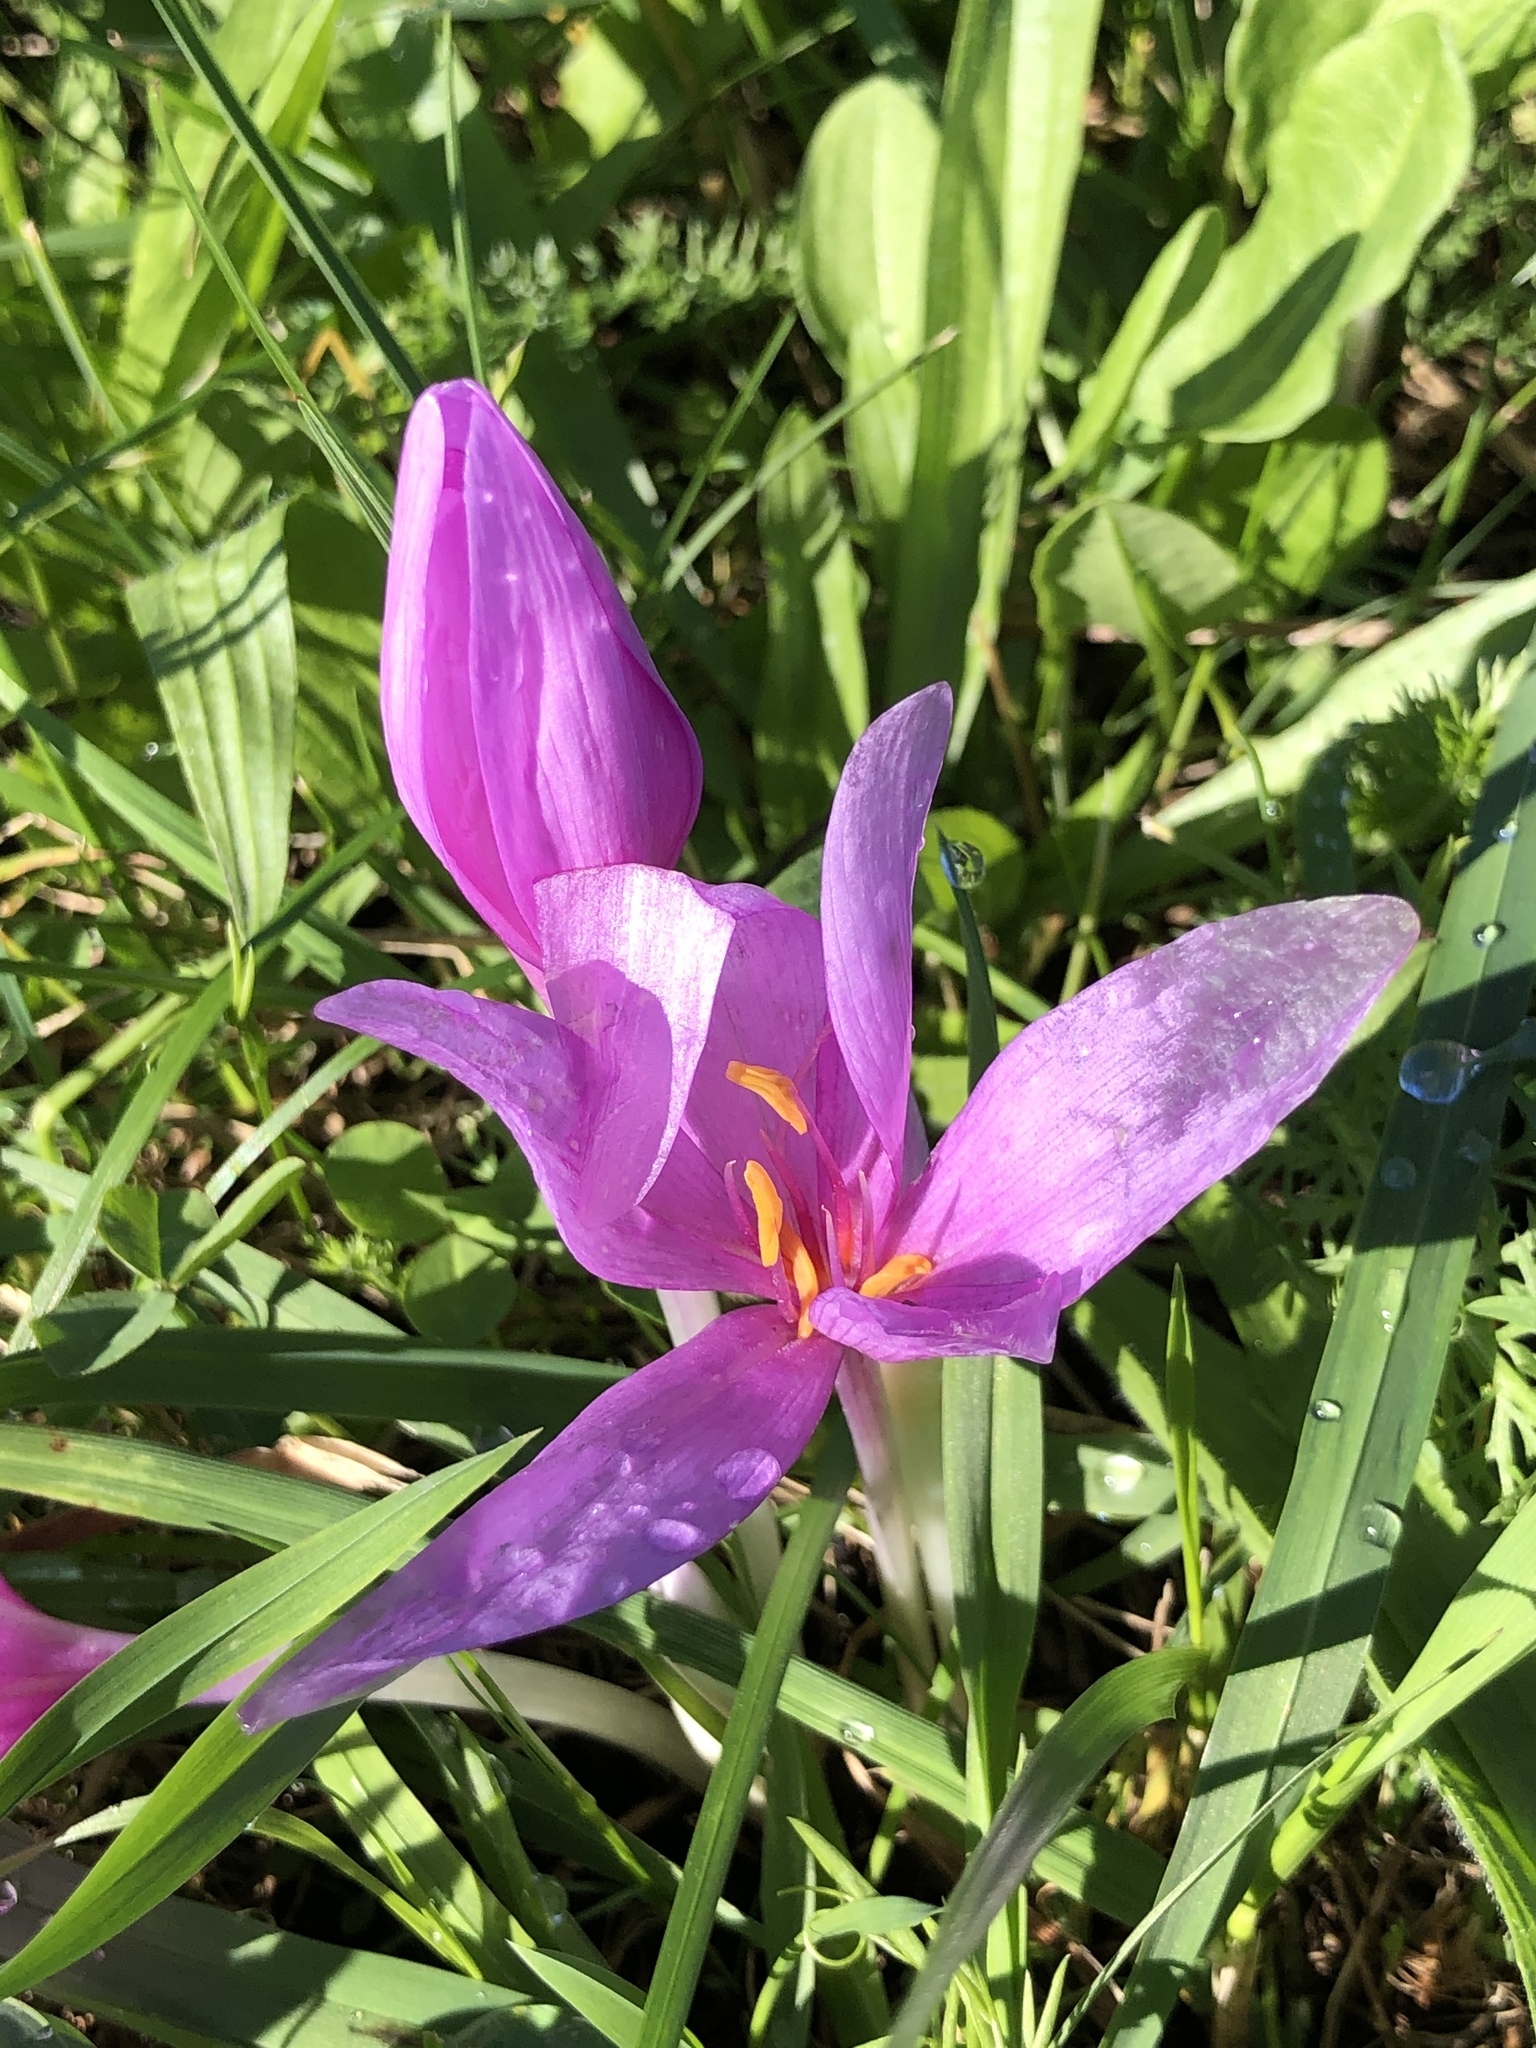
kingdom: Plantae
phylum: Tracheophyta
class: Liliopsida
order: Liliales
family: Colchicaceae
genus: Colchicum
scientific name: Colchicum autumnale
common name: Autumn crocus
